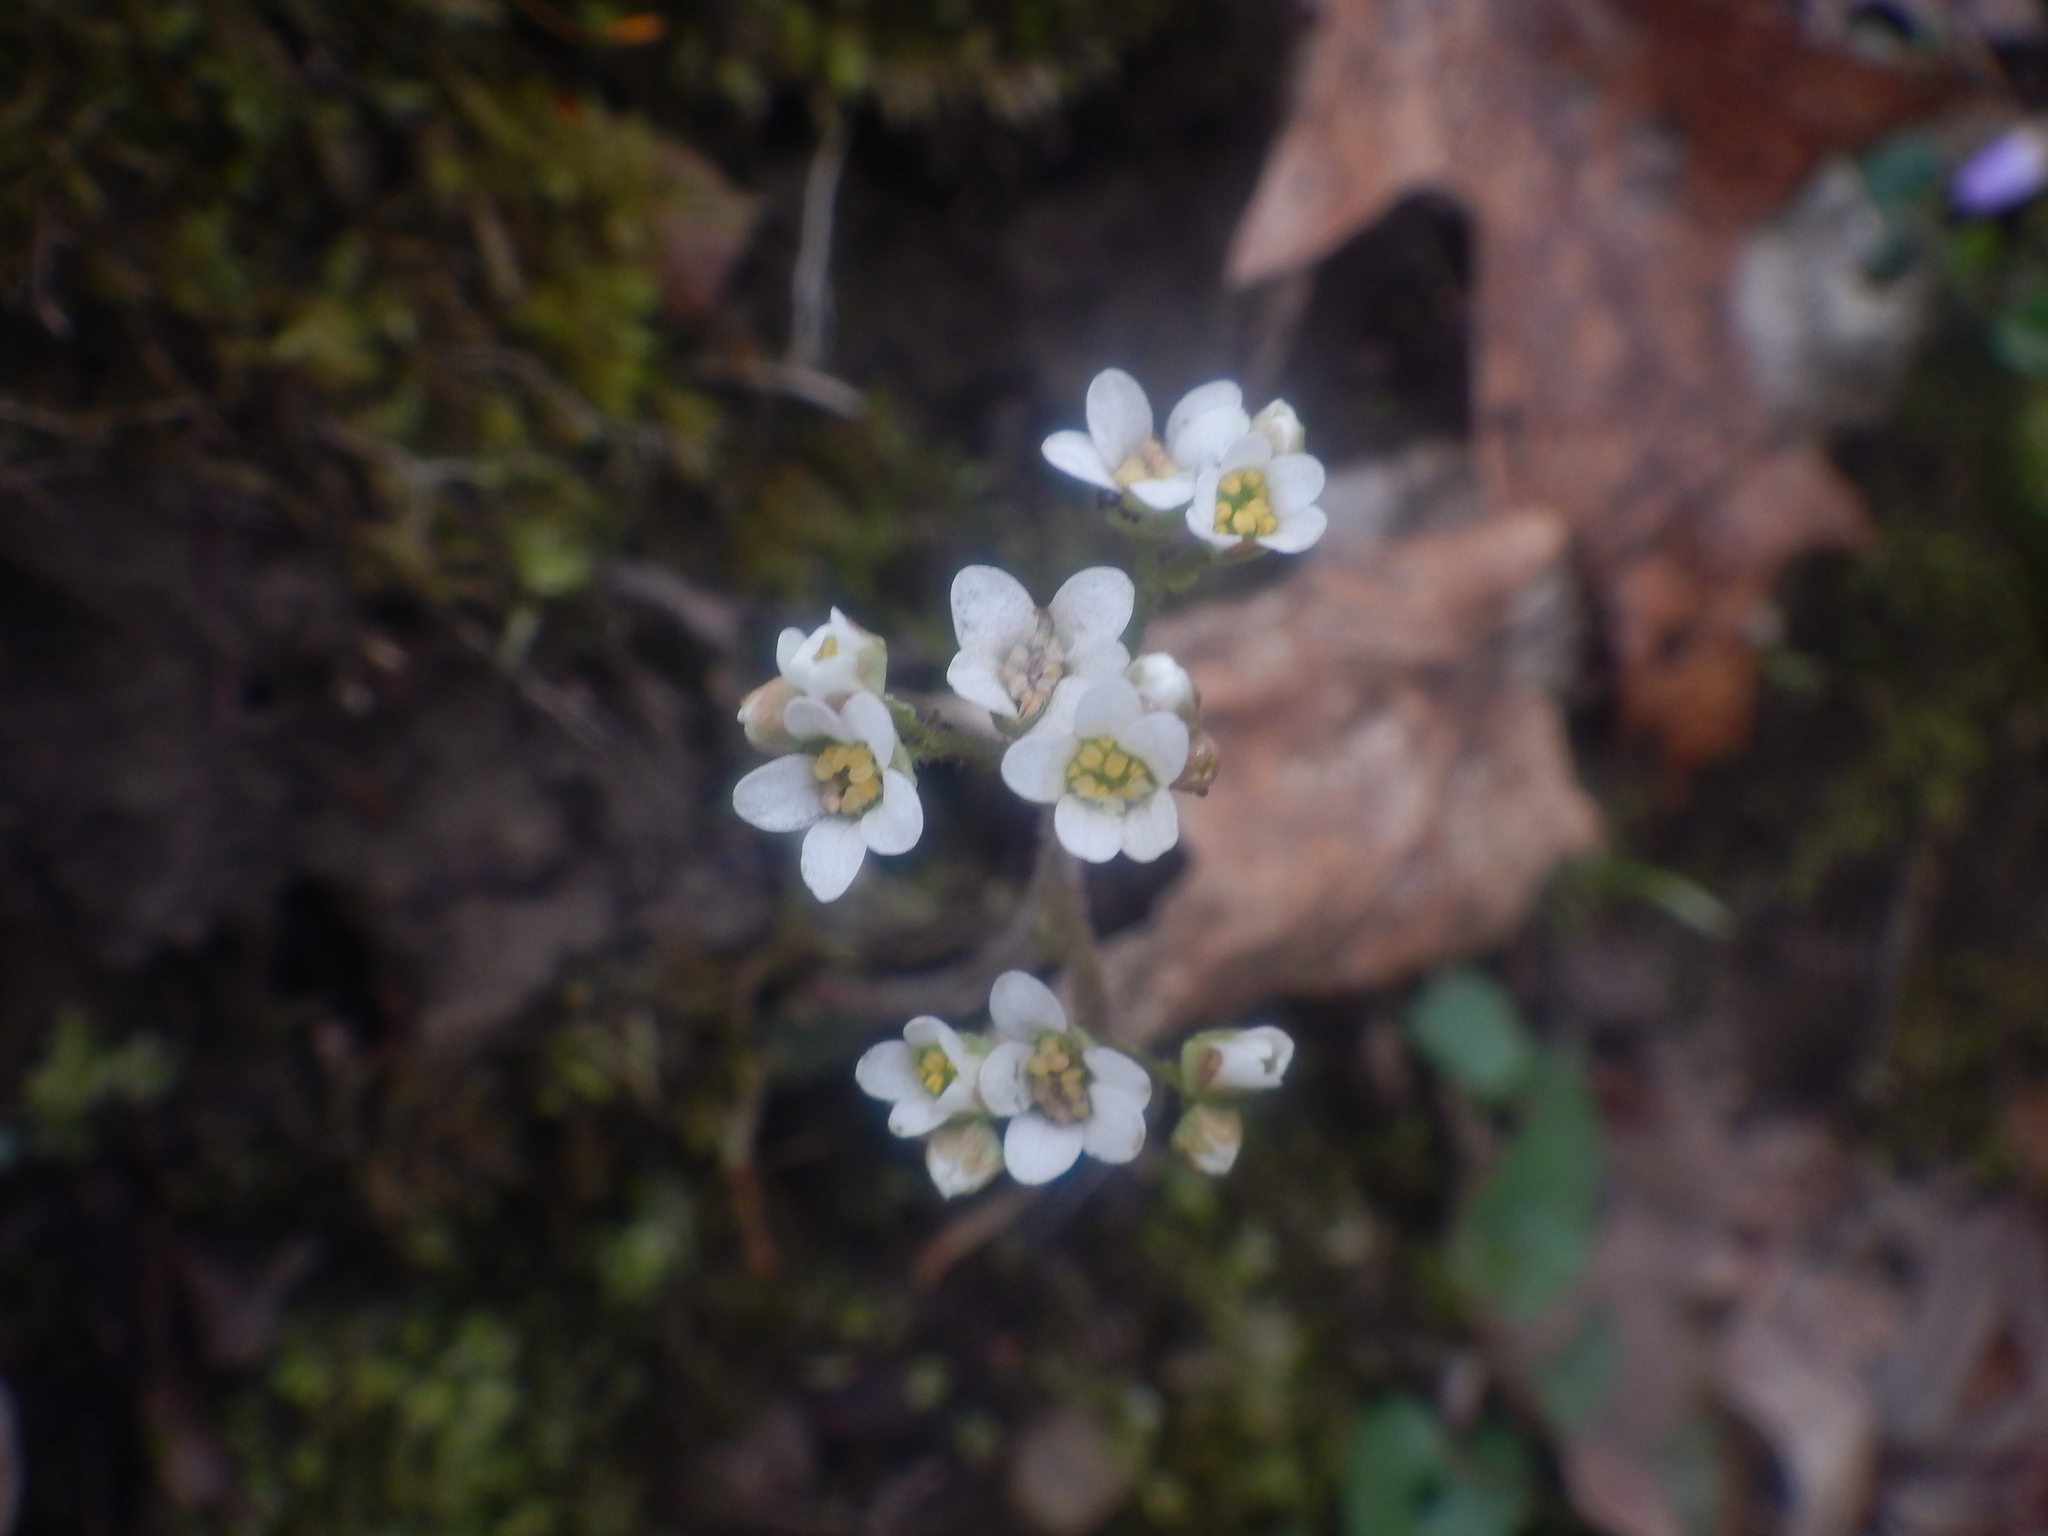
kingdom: Plantae
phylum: Tracheophyta
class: Magnoliopsida
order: Saxifragales
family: Saxifragaceae
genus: Micranthes
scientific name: Micranthes virginiensis
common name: Early saxifrage
